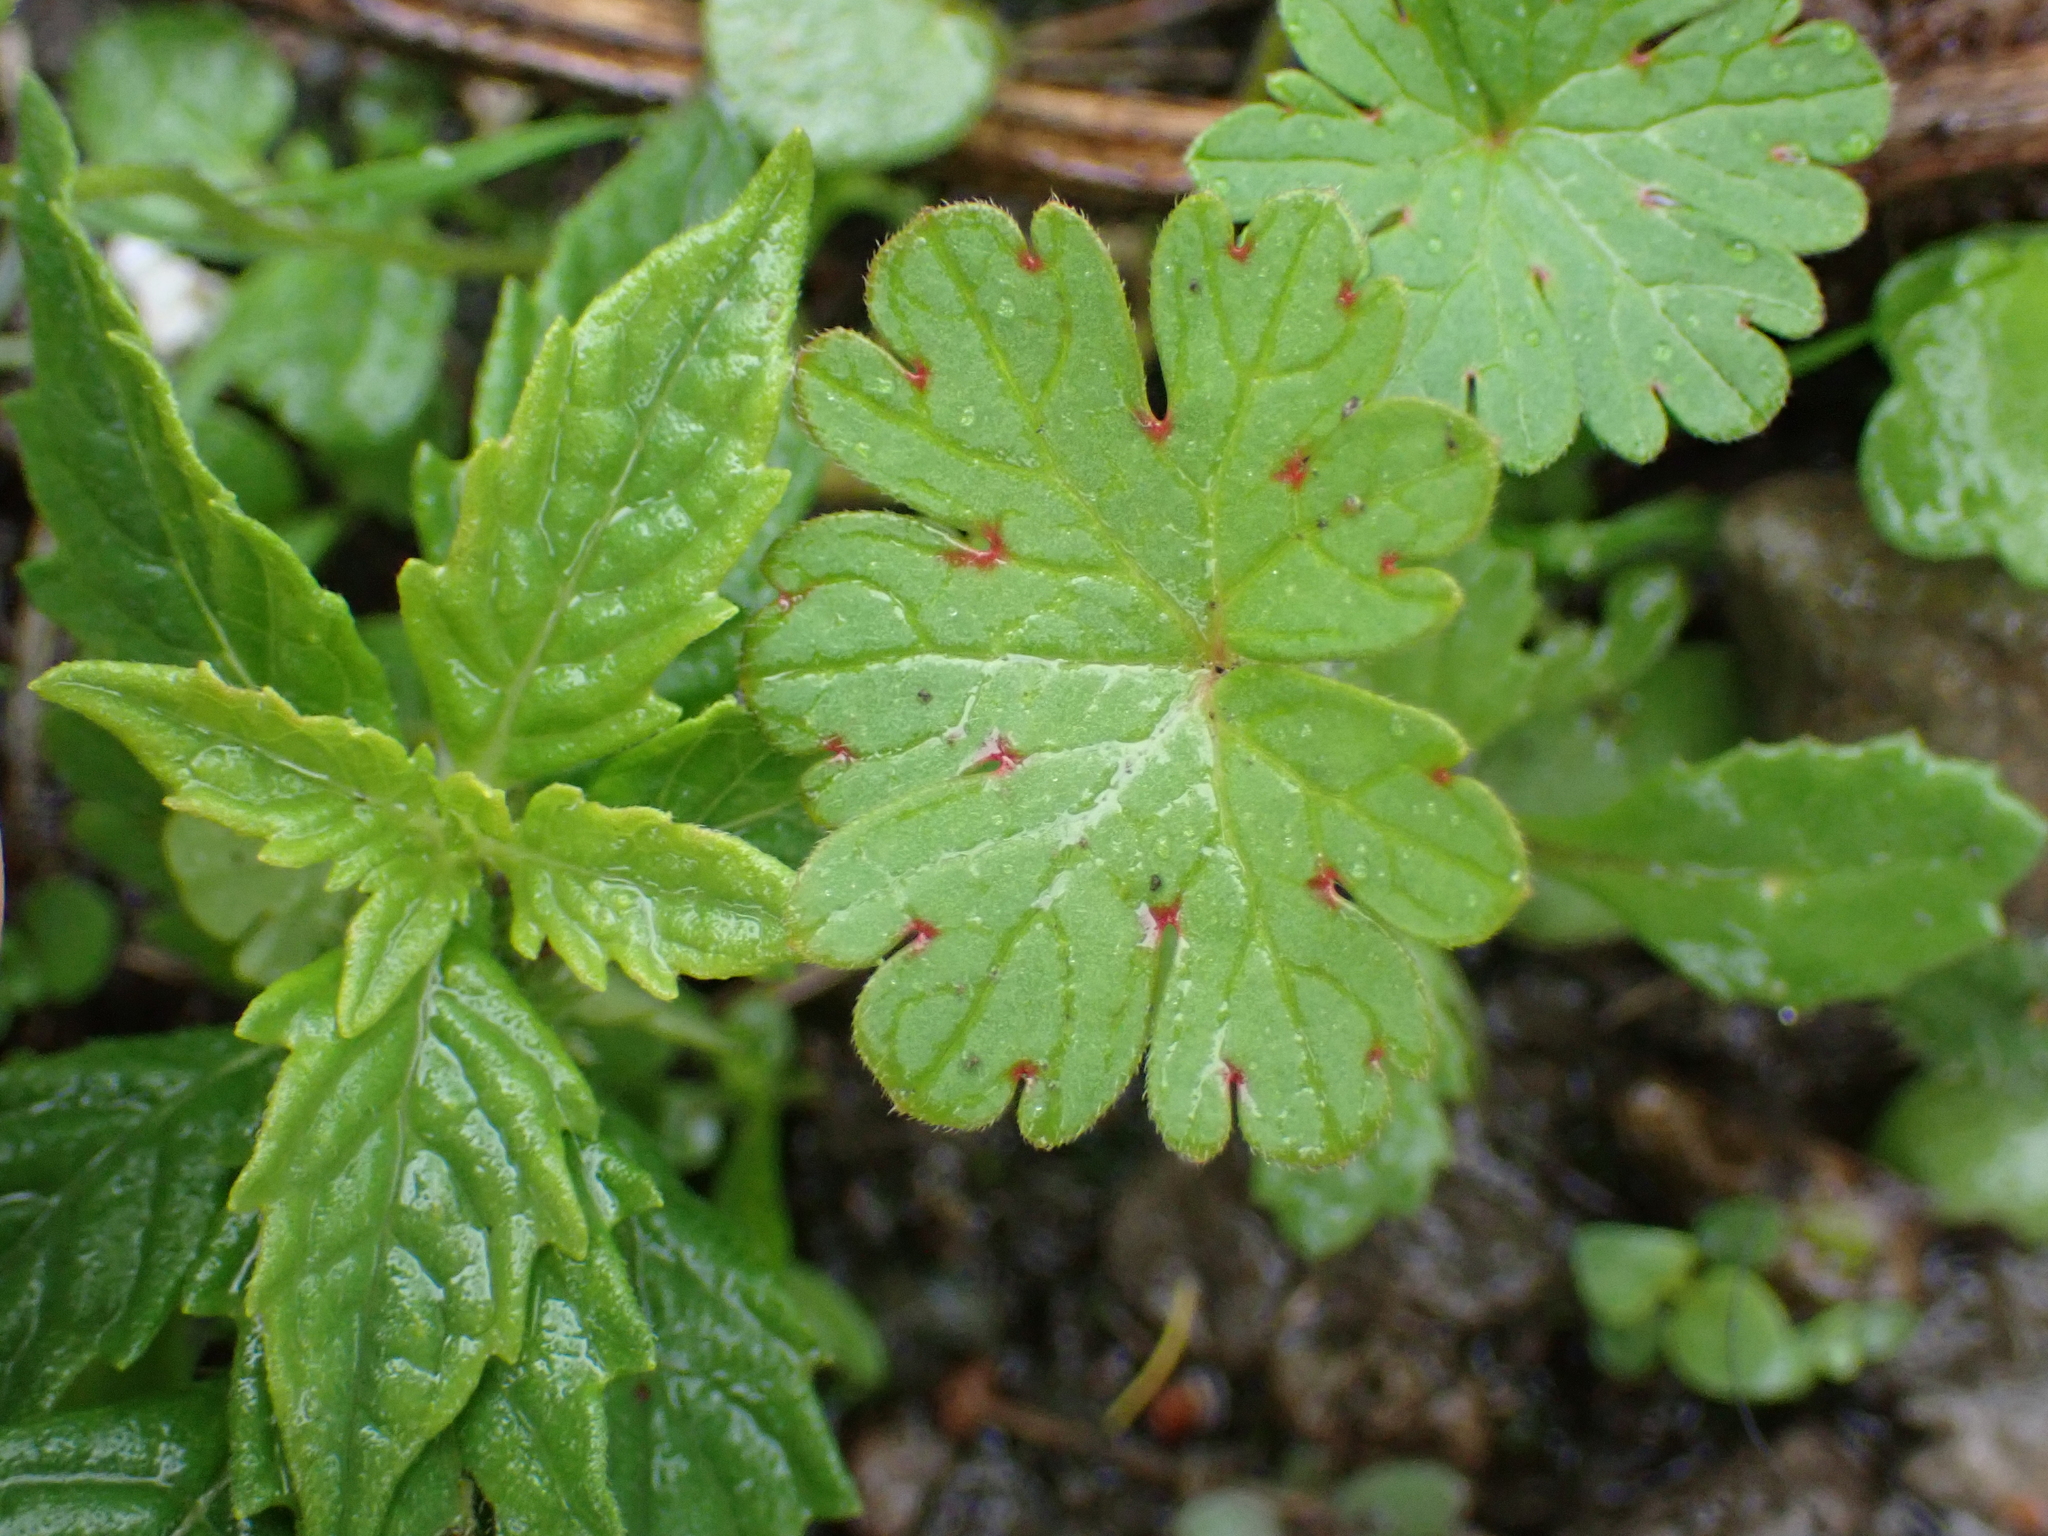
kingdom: Plantae
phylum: Tracheophyta
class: Magnoliopsida
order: Geraniales
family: Geraniaceae
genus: Geranium
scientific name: Geranium rotundifolium
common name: Round-leaved crane's-bill
